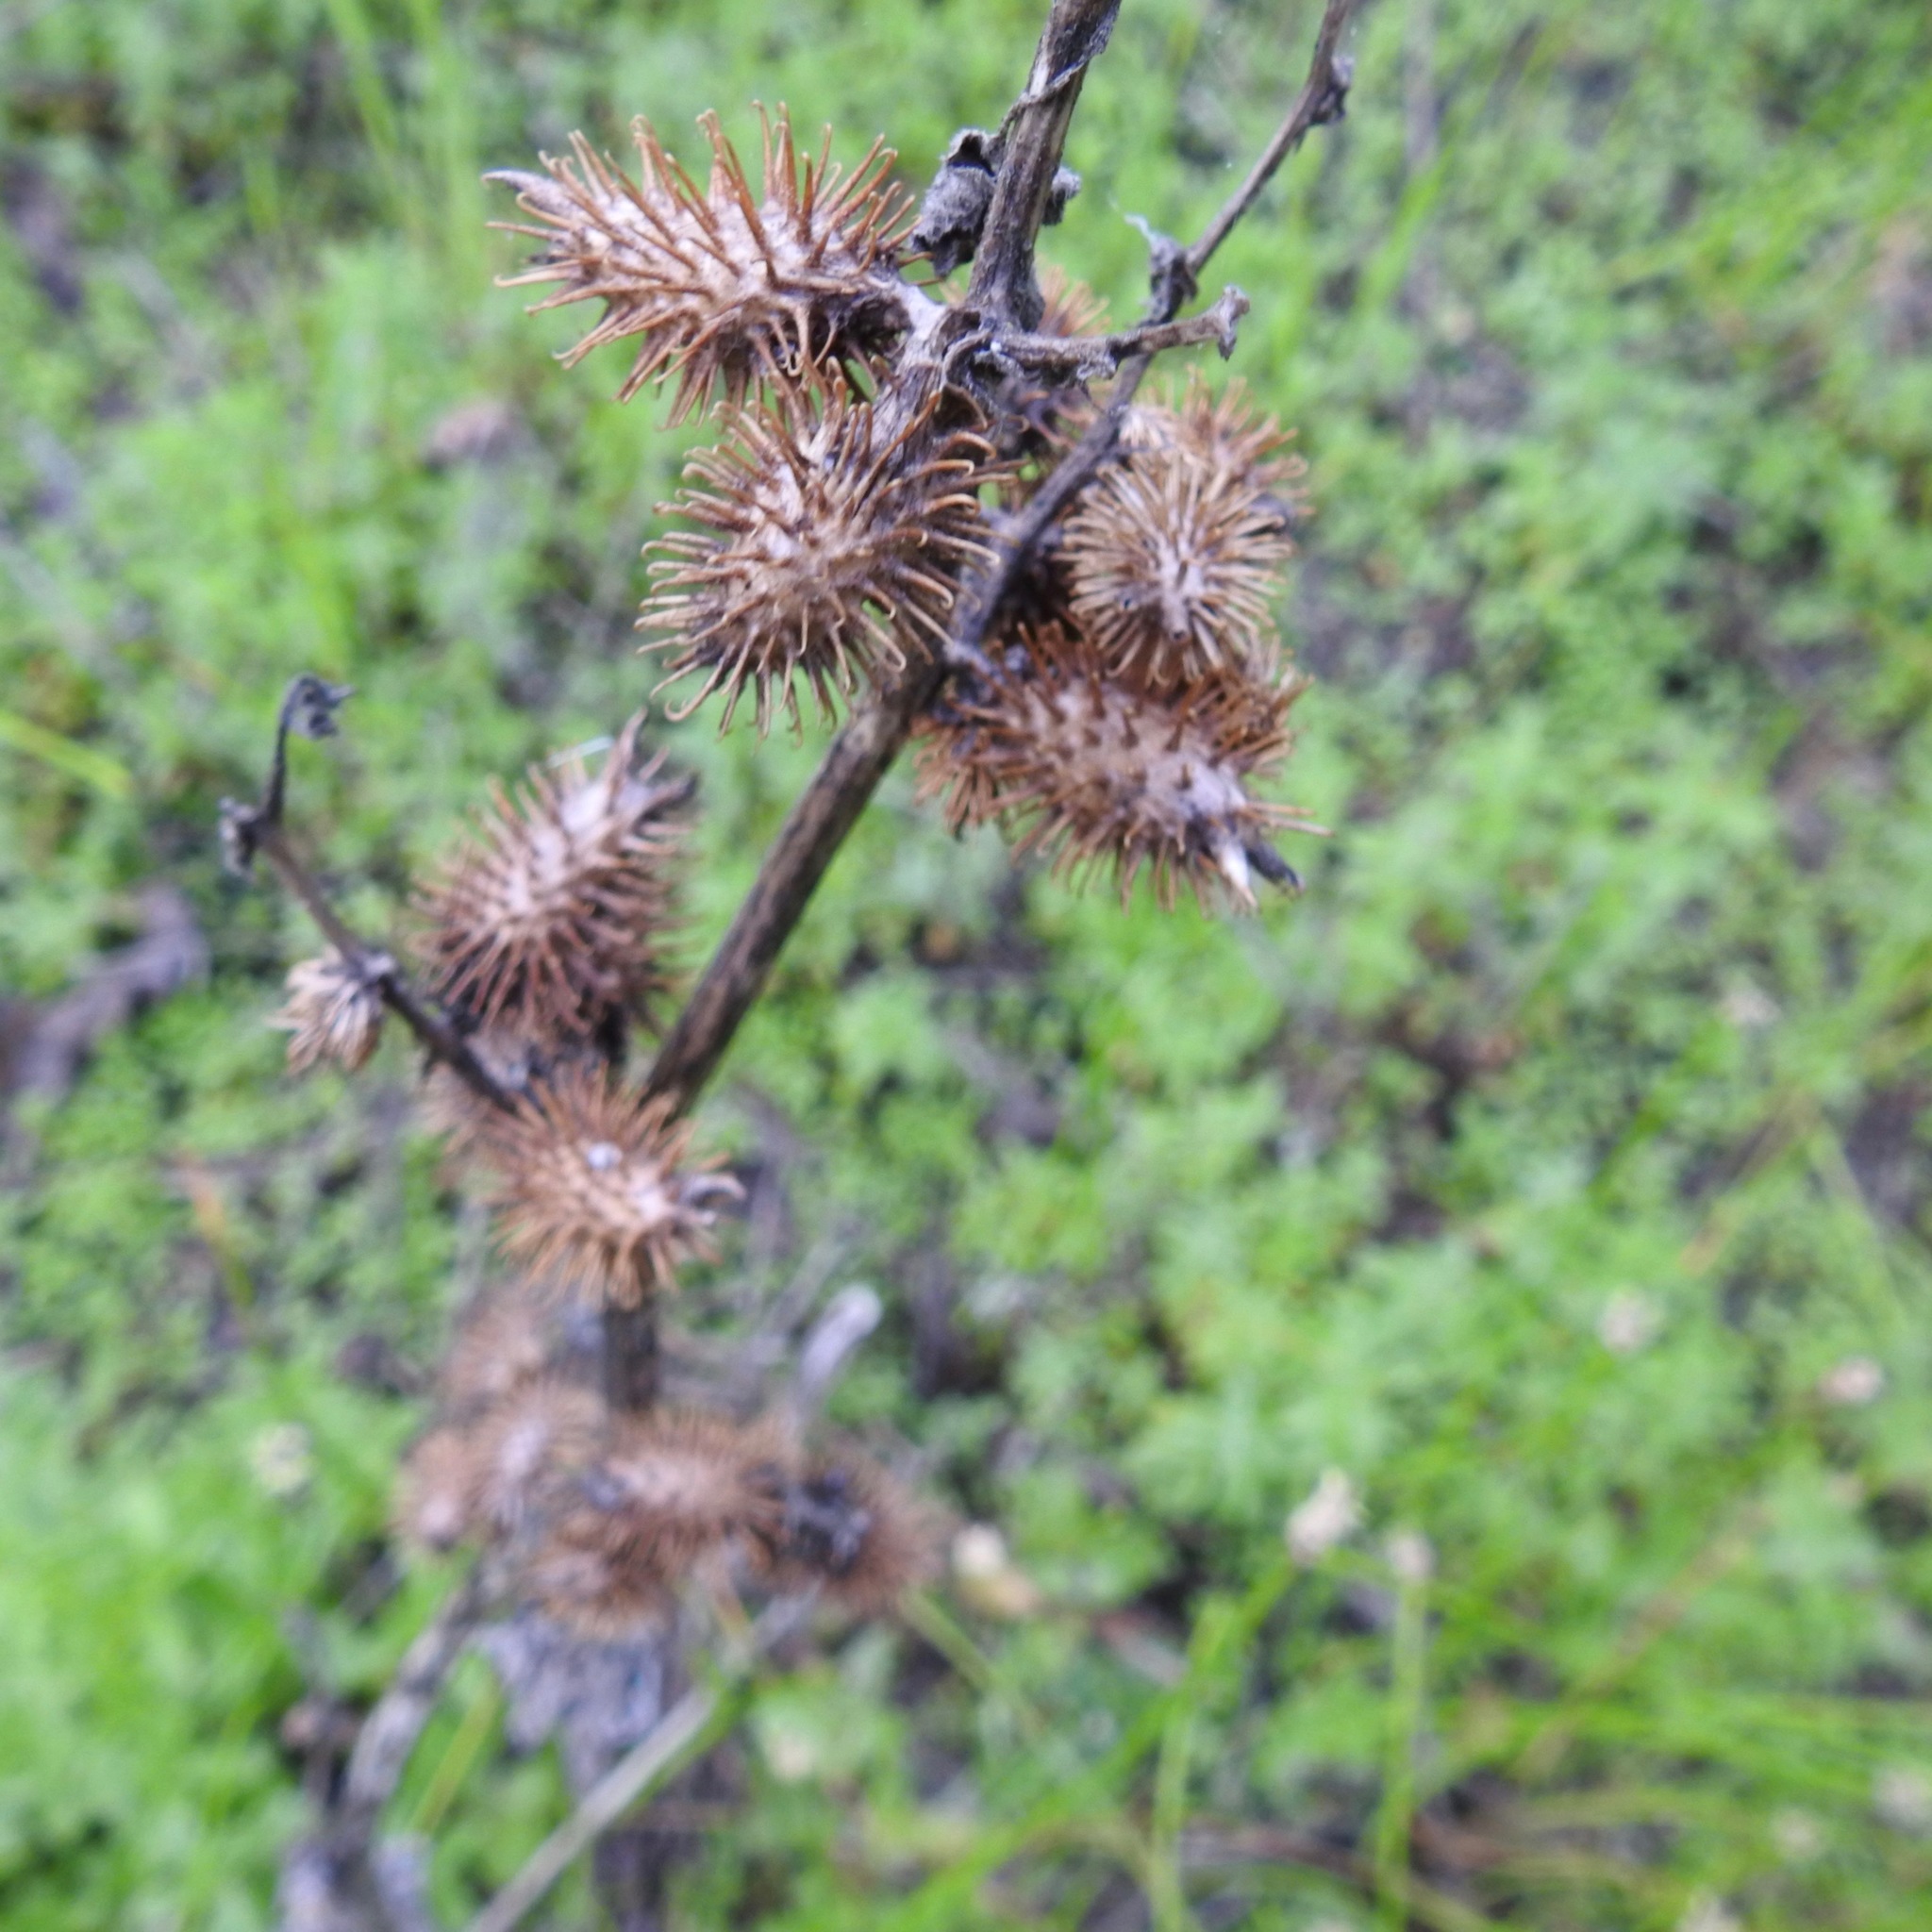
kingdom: Plantae
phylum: Tracheophyta
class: Magnoliopsida
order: Asterales
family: Asteraceae
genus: Xanthium
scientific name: Xanthium strumarium
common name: Rough cocklebur
